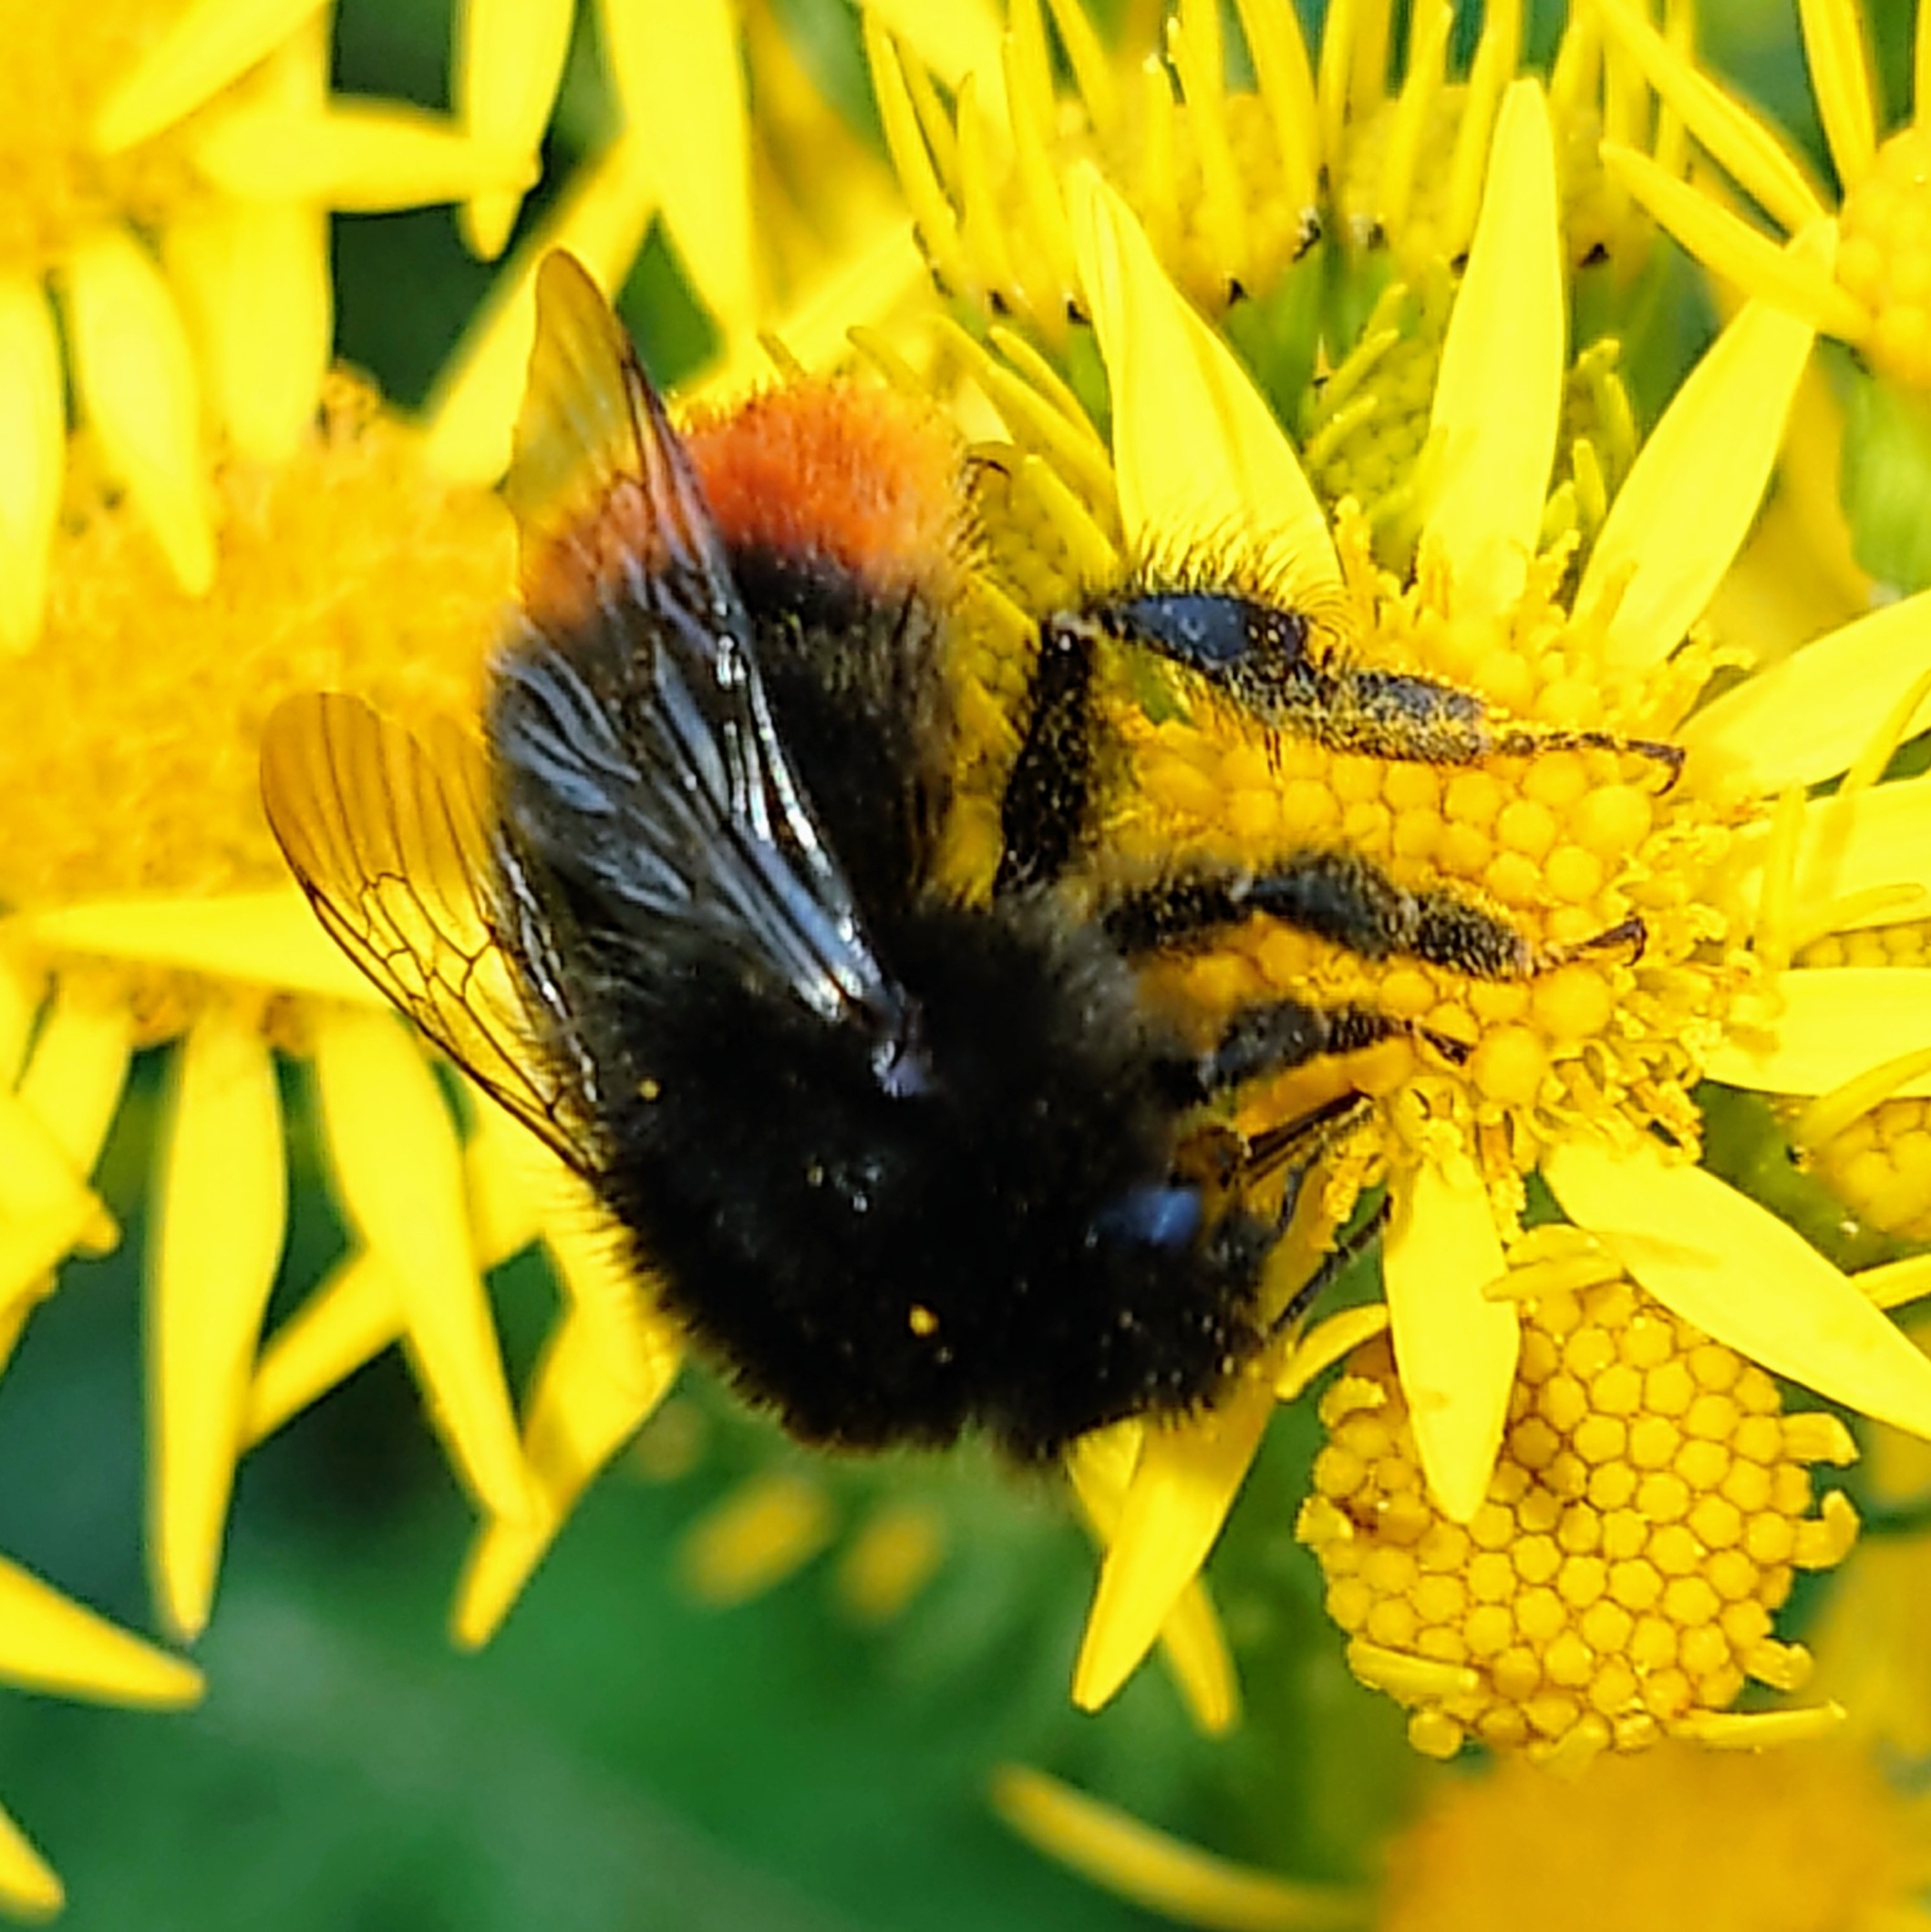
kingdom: Animalia
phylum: Arthropoda
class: Insecta
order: Hymenoptera
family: Apidae
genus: Bombus
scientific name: Bombus lapidarius
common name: Large red-tailed humble-bee
